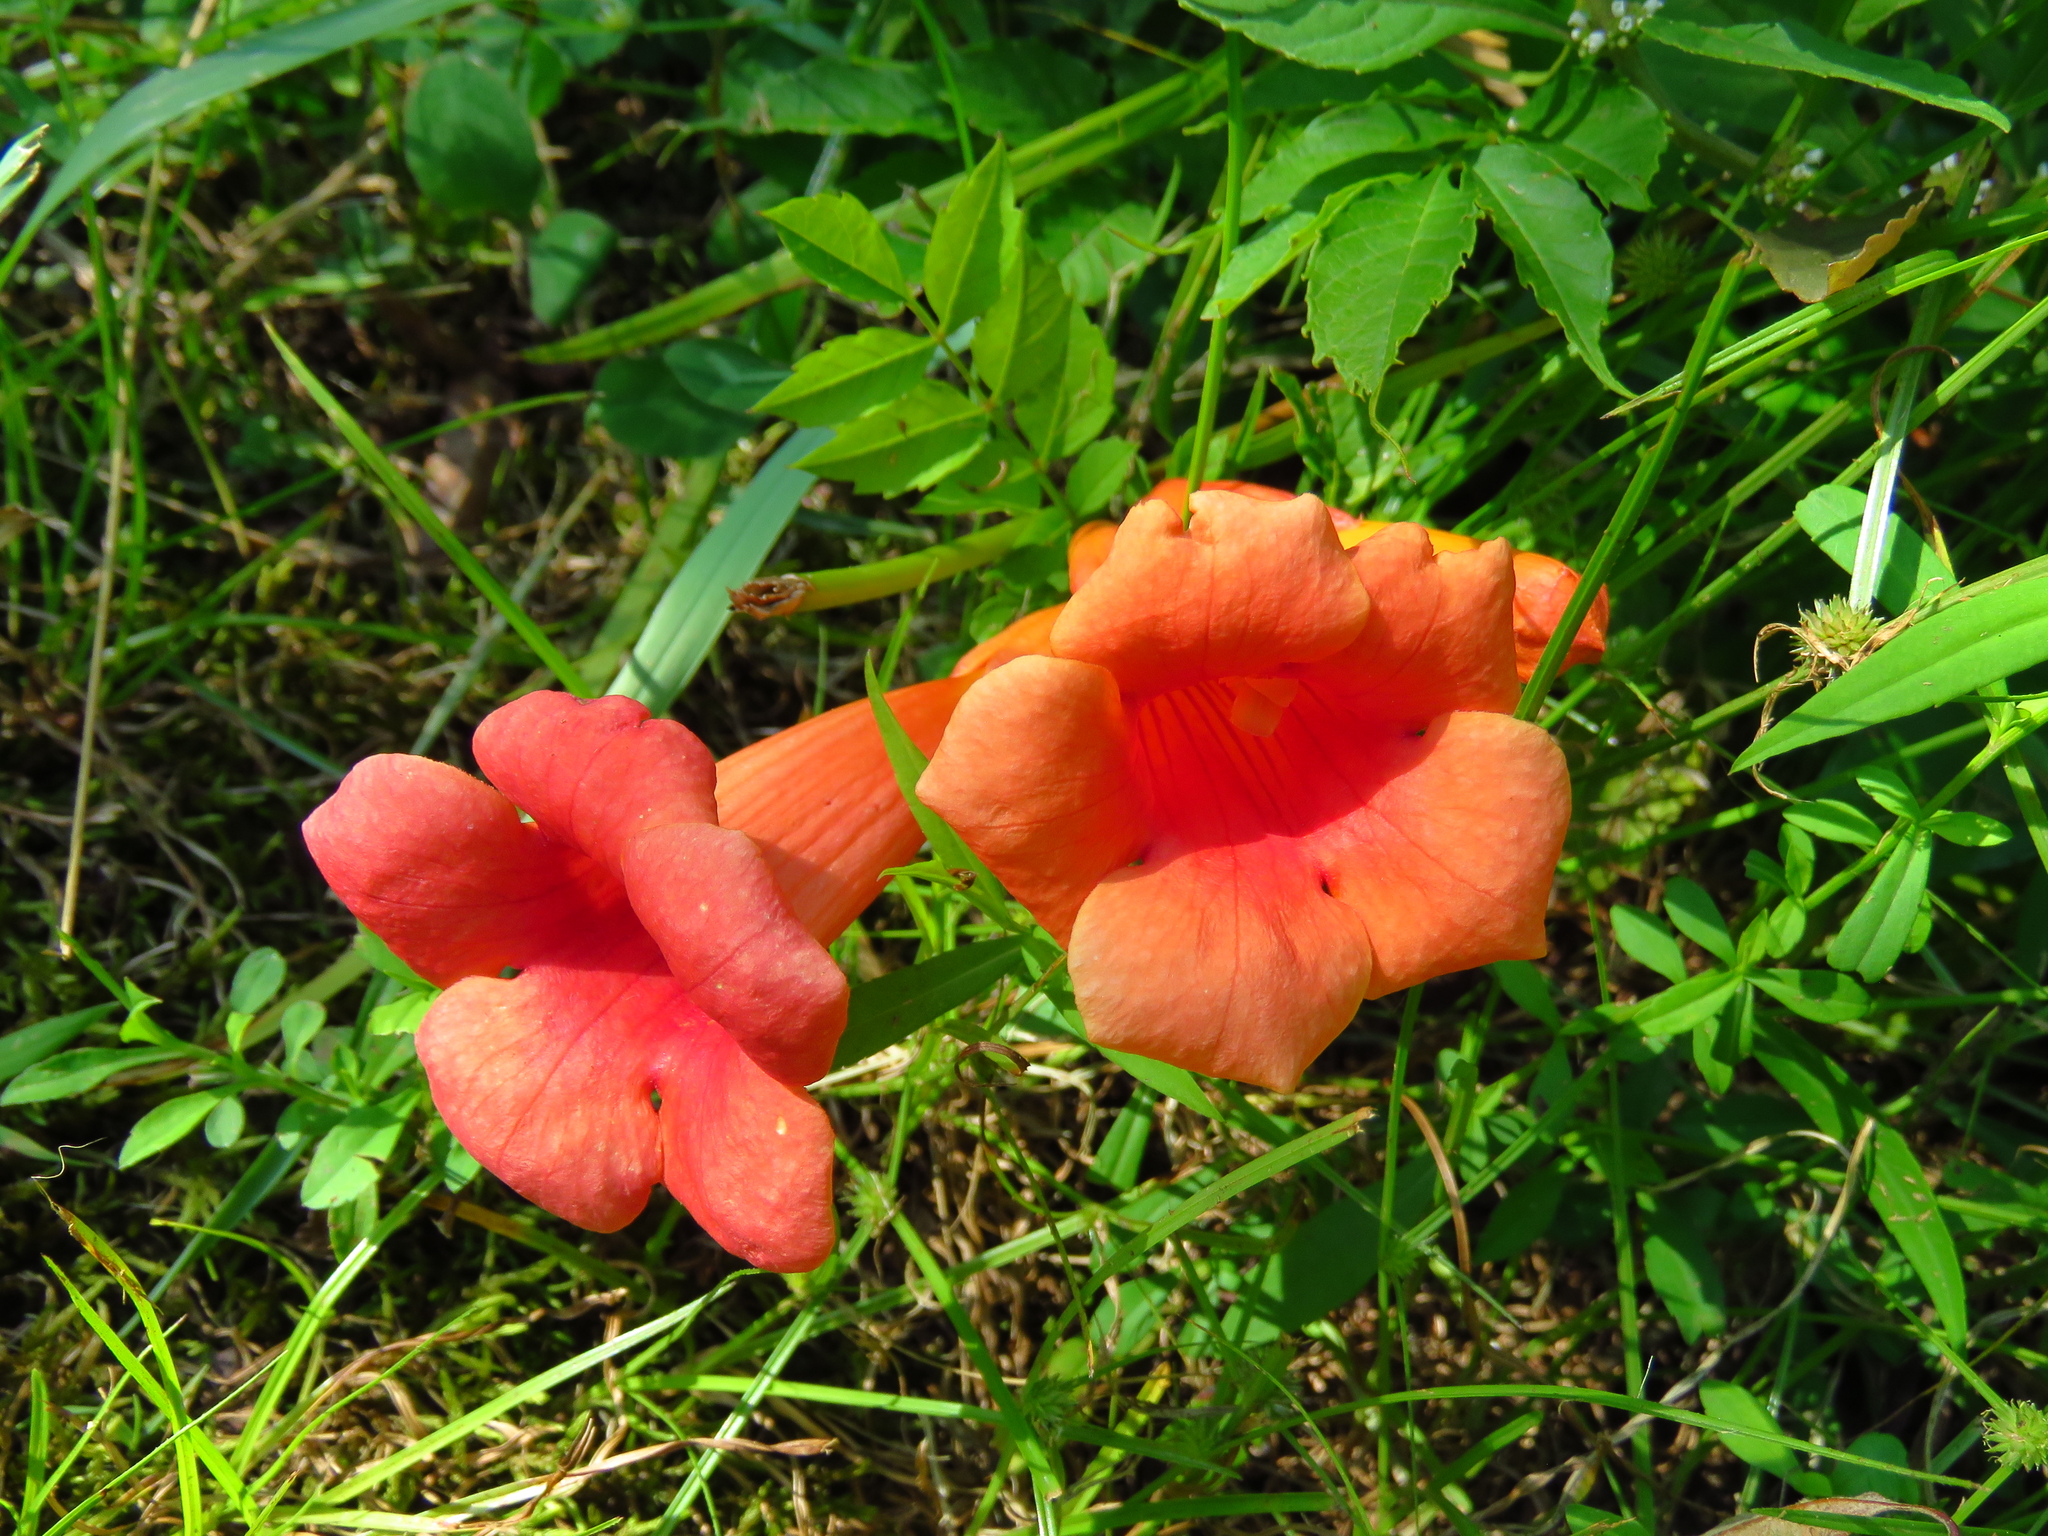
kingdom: Plantae
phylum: Tracheophyta
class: Magnoliopsida
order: Lamiales
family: Bignoniaceae
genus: Campsis
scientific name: Campsis radicans
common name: Trumpet-creeper
